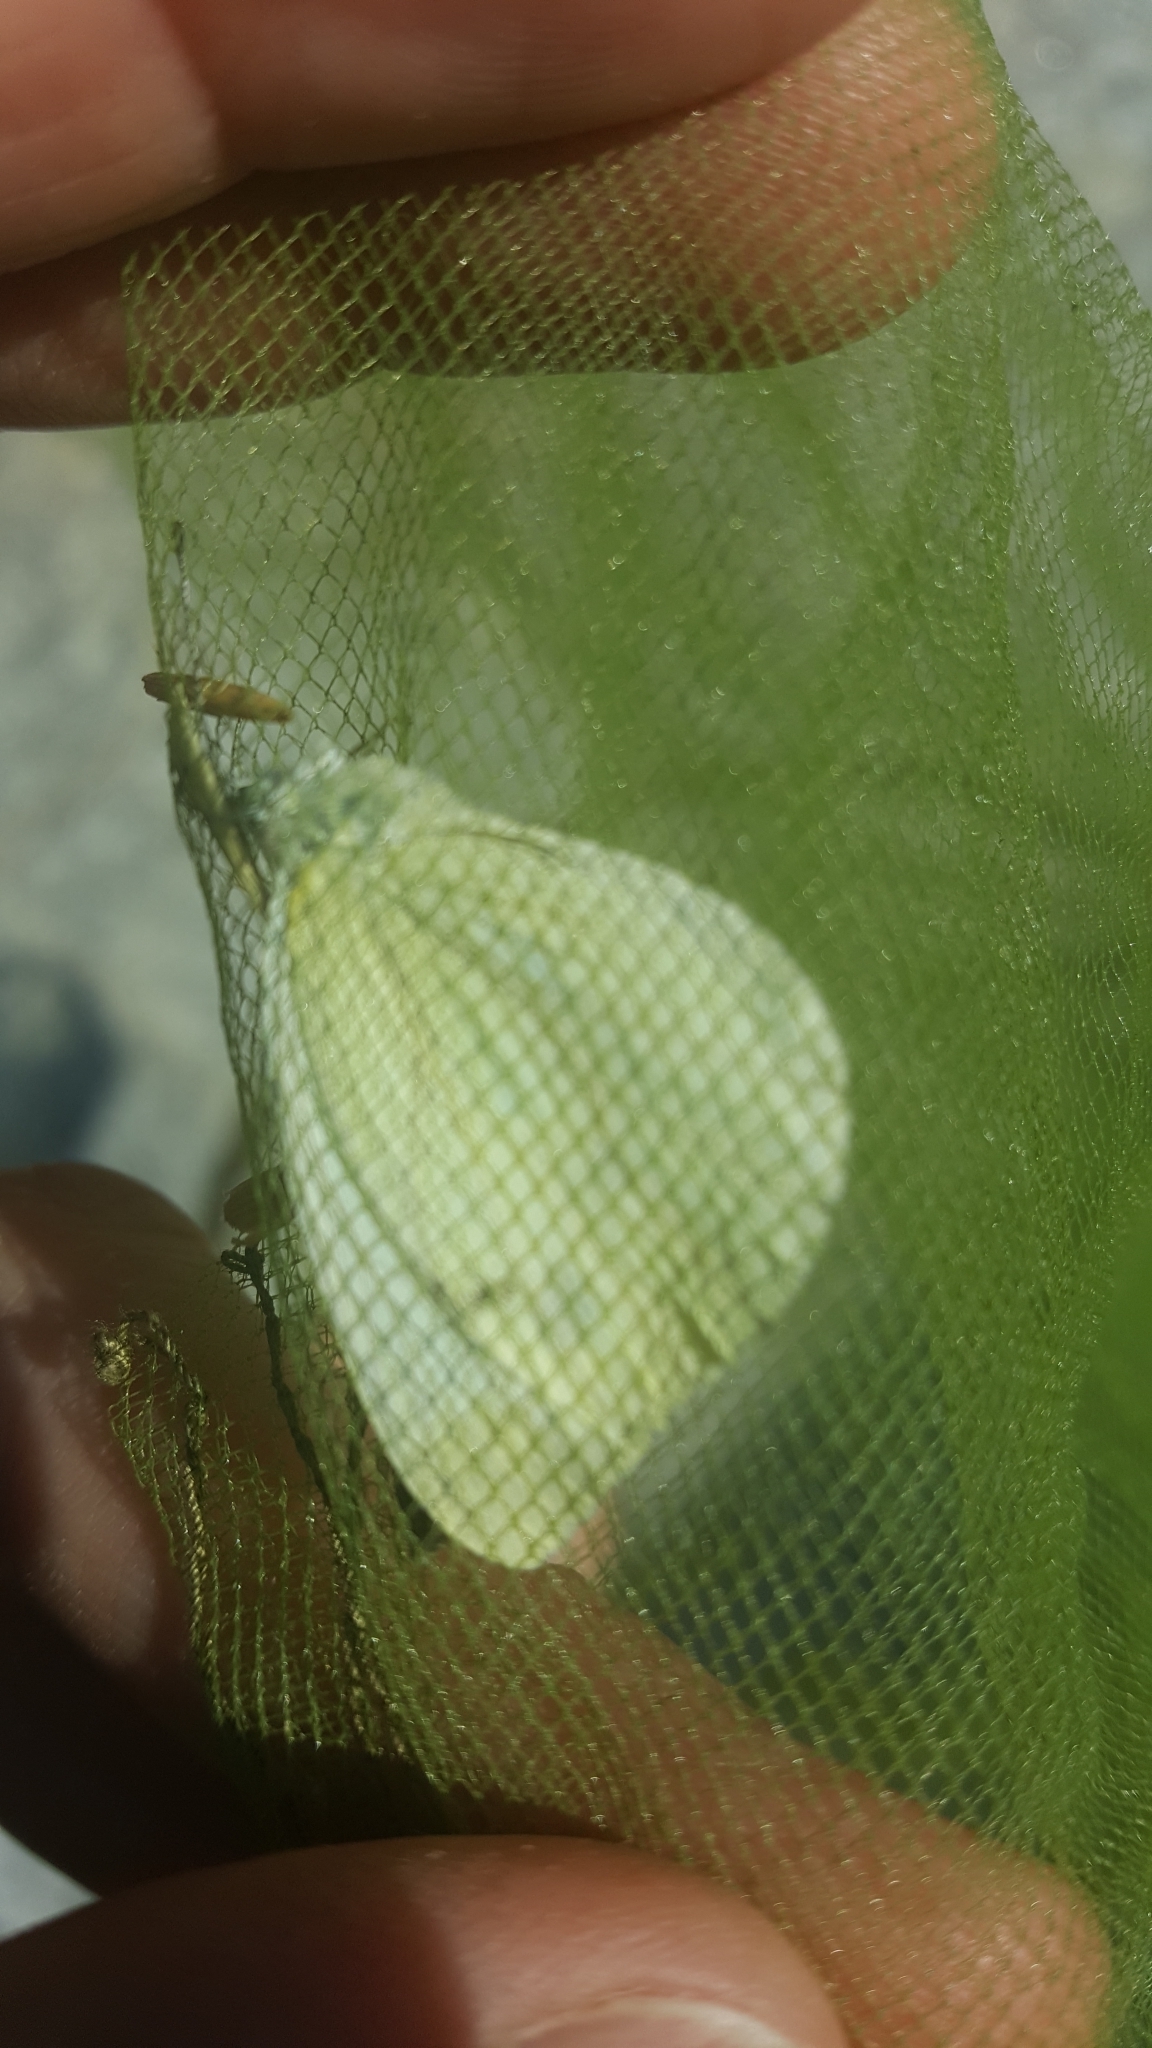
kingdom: Animalia
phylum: Arthropoda
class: Insecta
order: Lepidoptera
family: Pieridae
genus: Pieris
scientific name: Pieris napi
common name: Green-veined white
